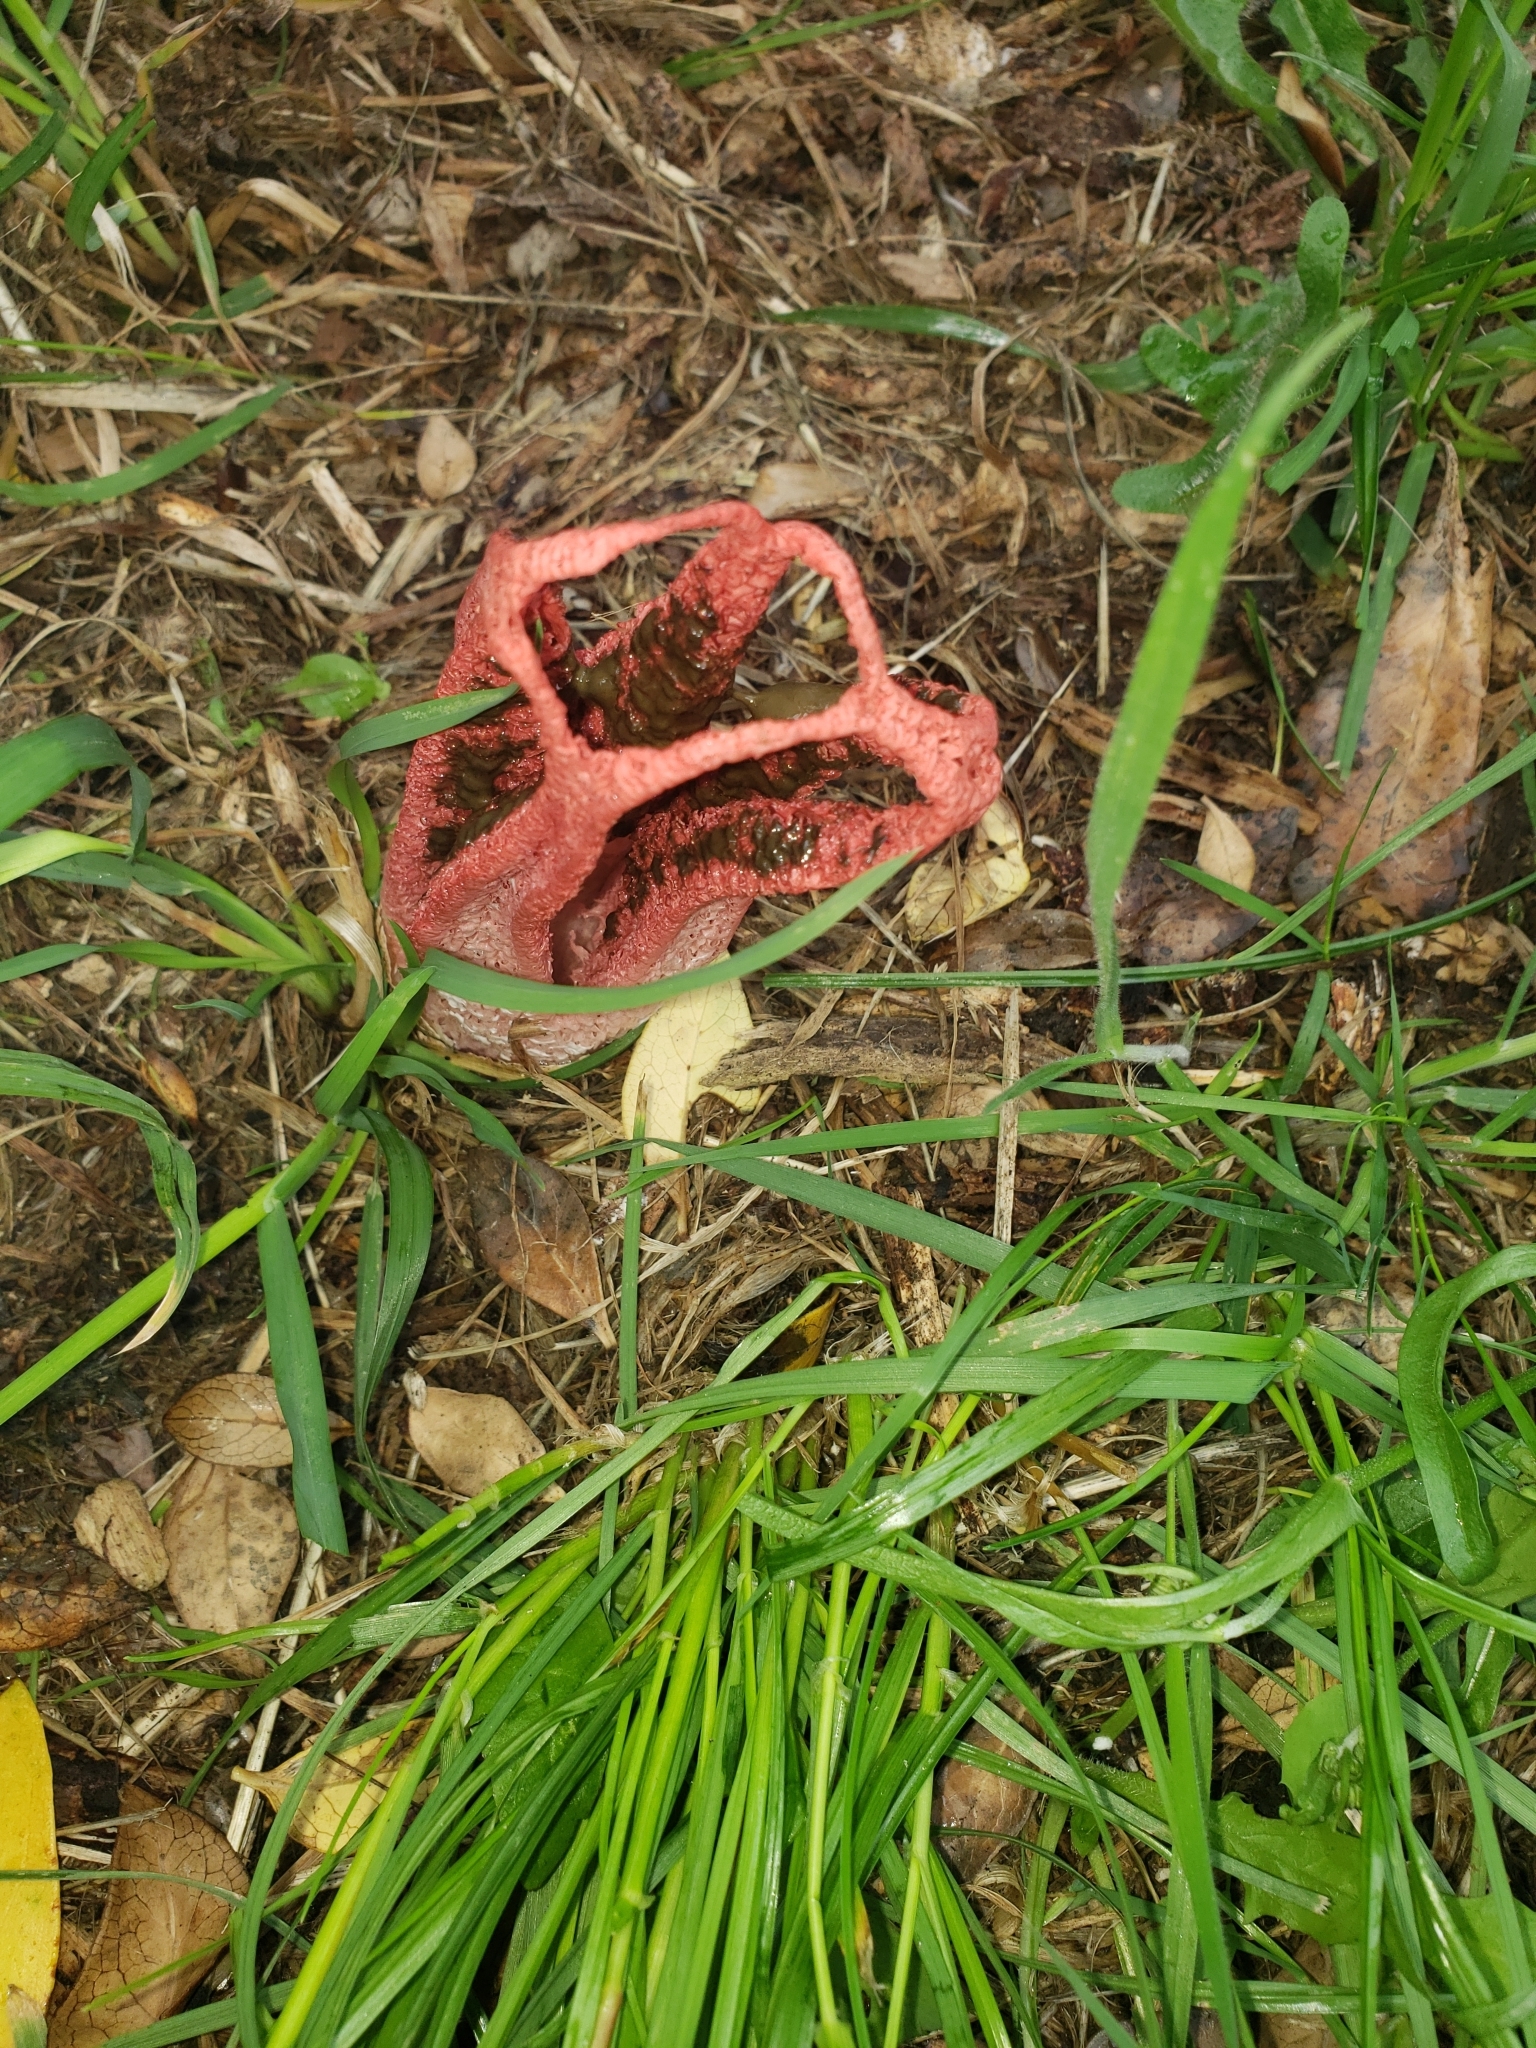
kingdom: Fungi
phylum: Basidiomycota
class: Agaricomycetes
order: Phallales
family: Phallaceae
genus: Clathrus
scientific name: Clathrus archeri
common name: Devil's fingers
